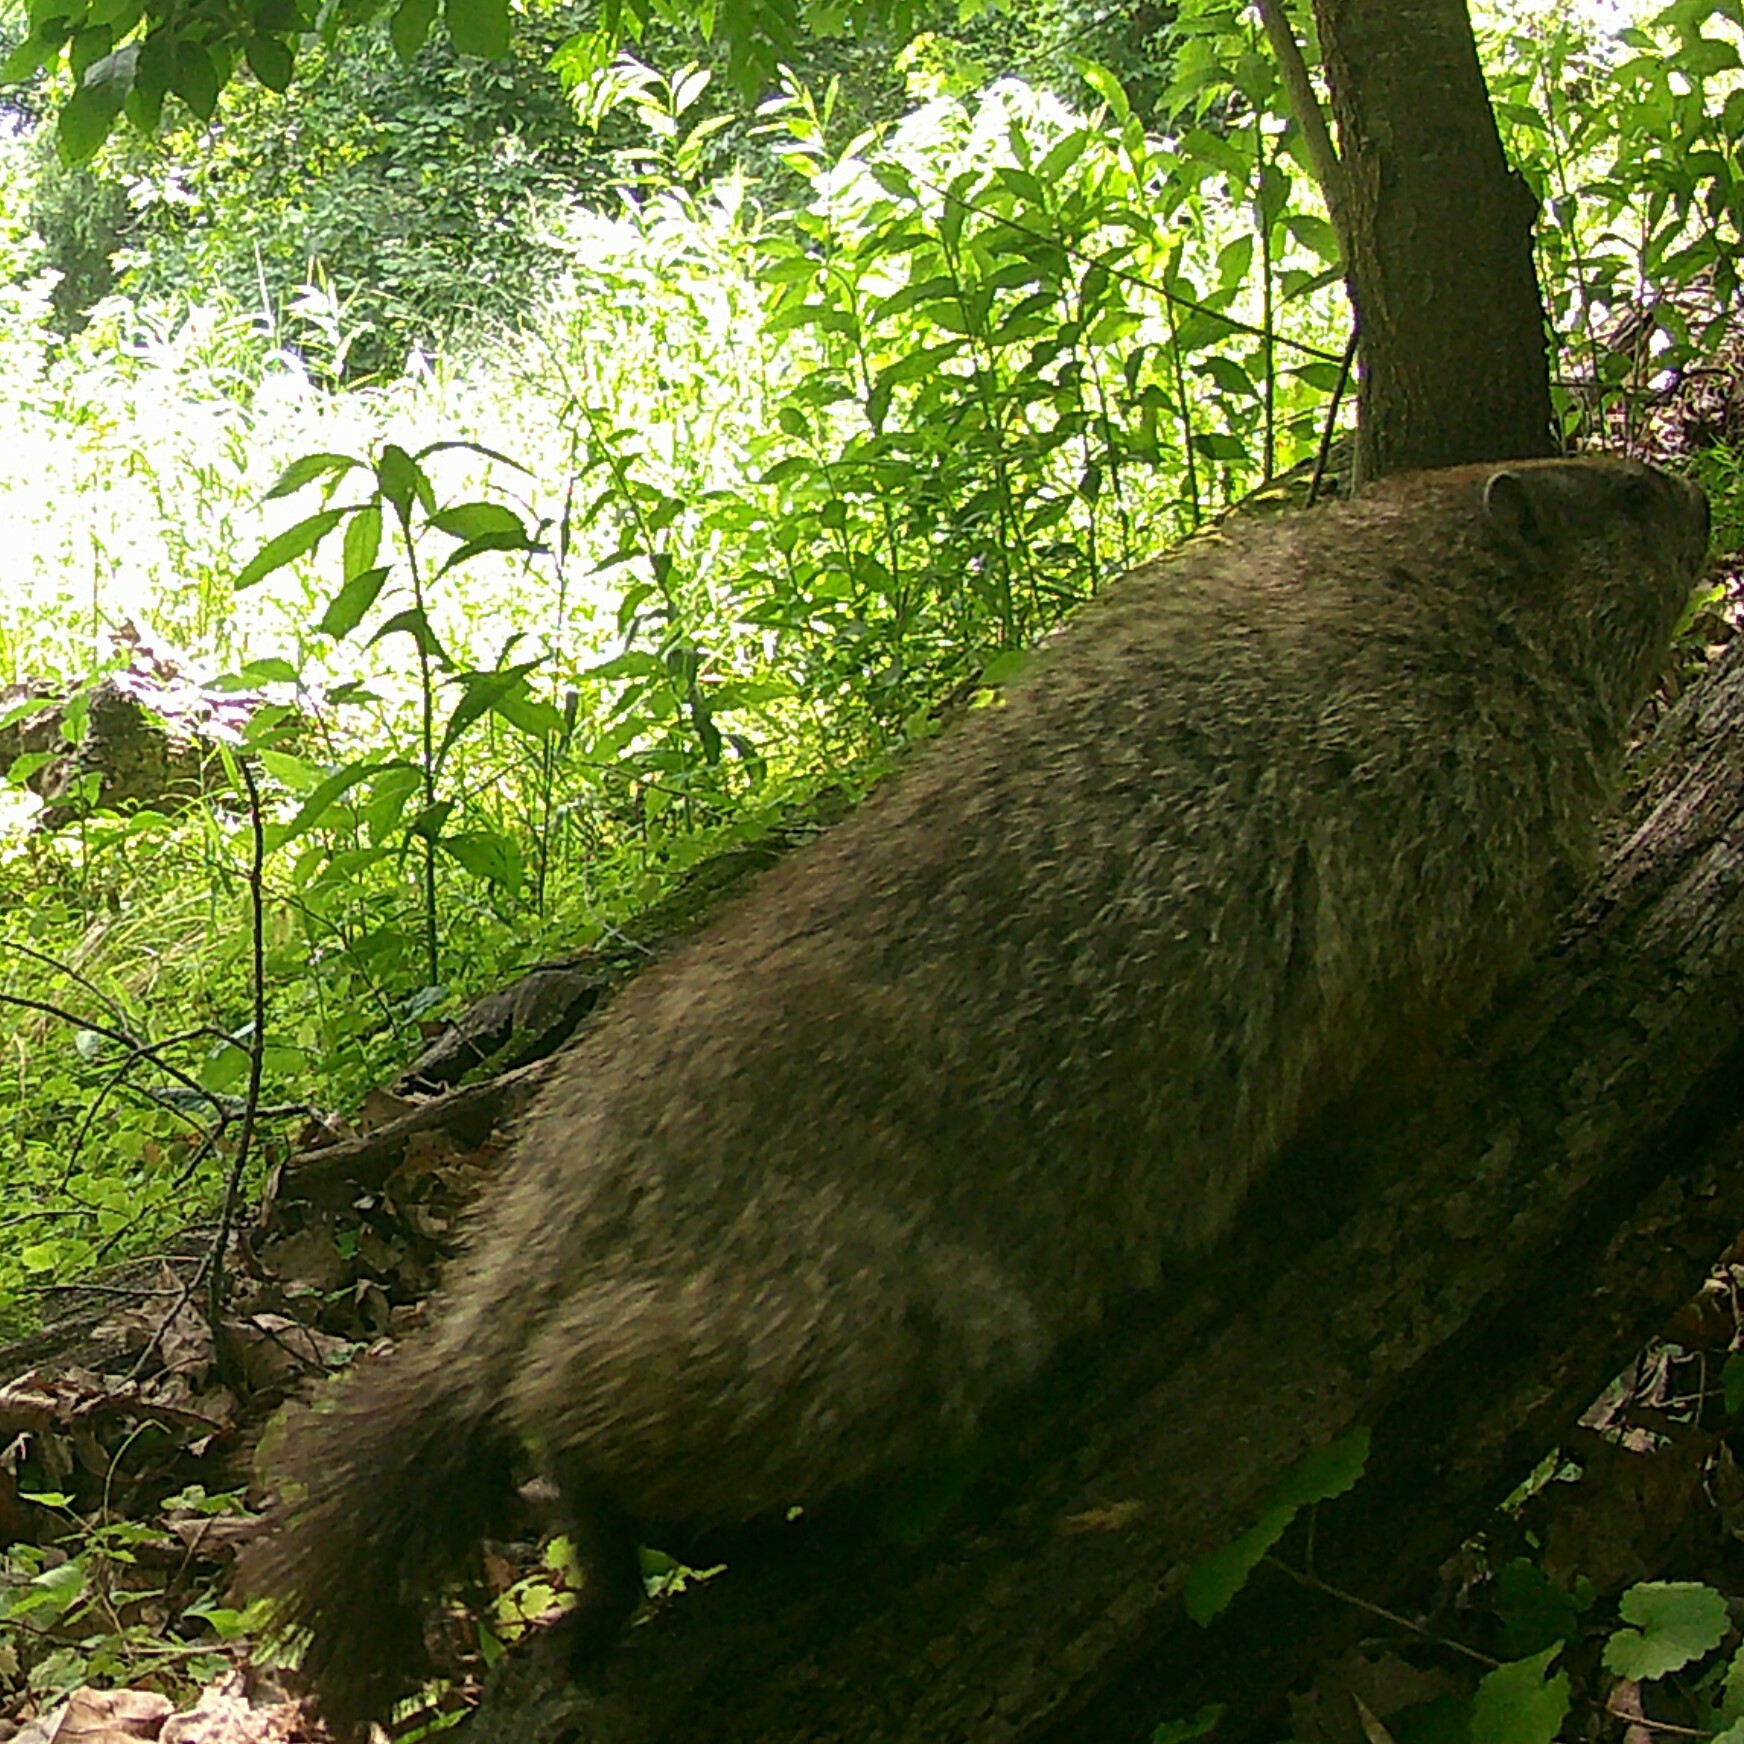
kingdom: Animalia
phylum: Chordata
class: Mammalia
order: Rodentia
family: Sciuridae
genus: Marmota
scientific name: Marmota monax
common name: Groundhog
